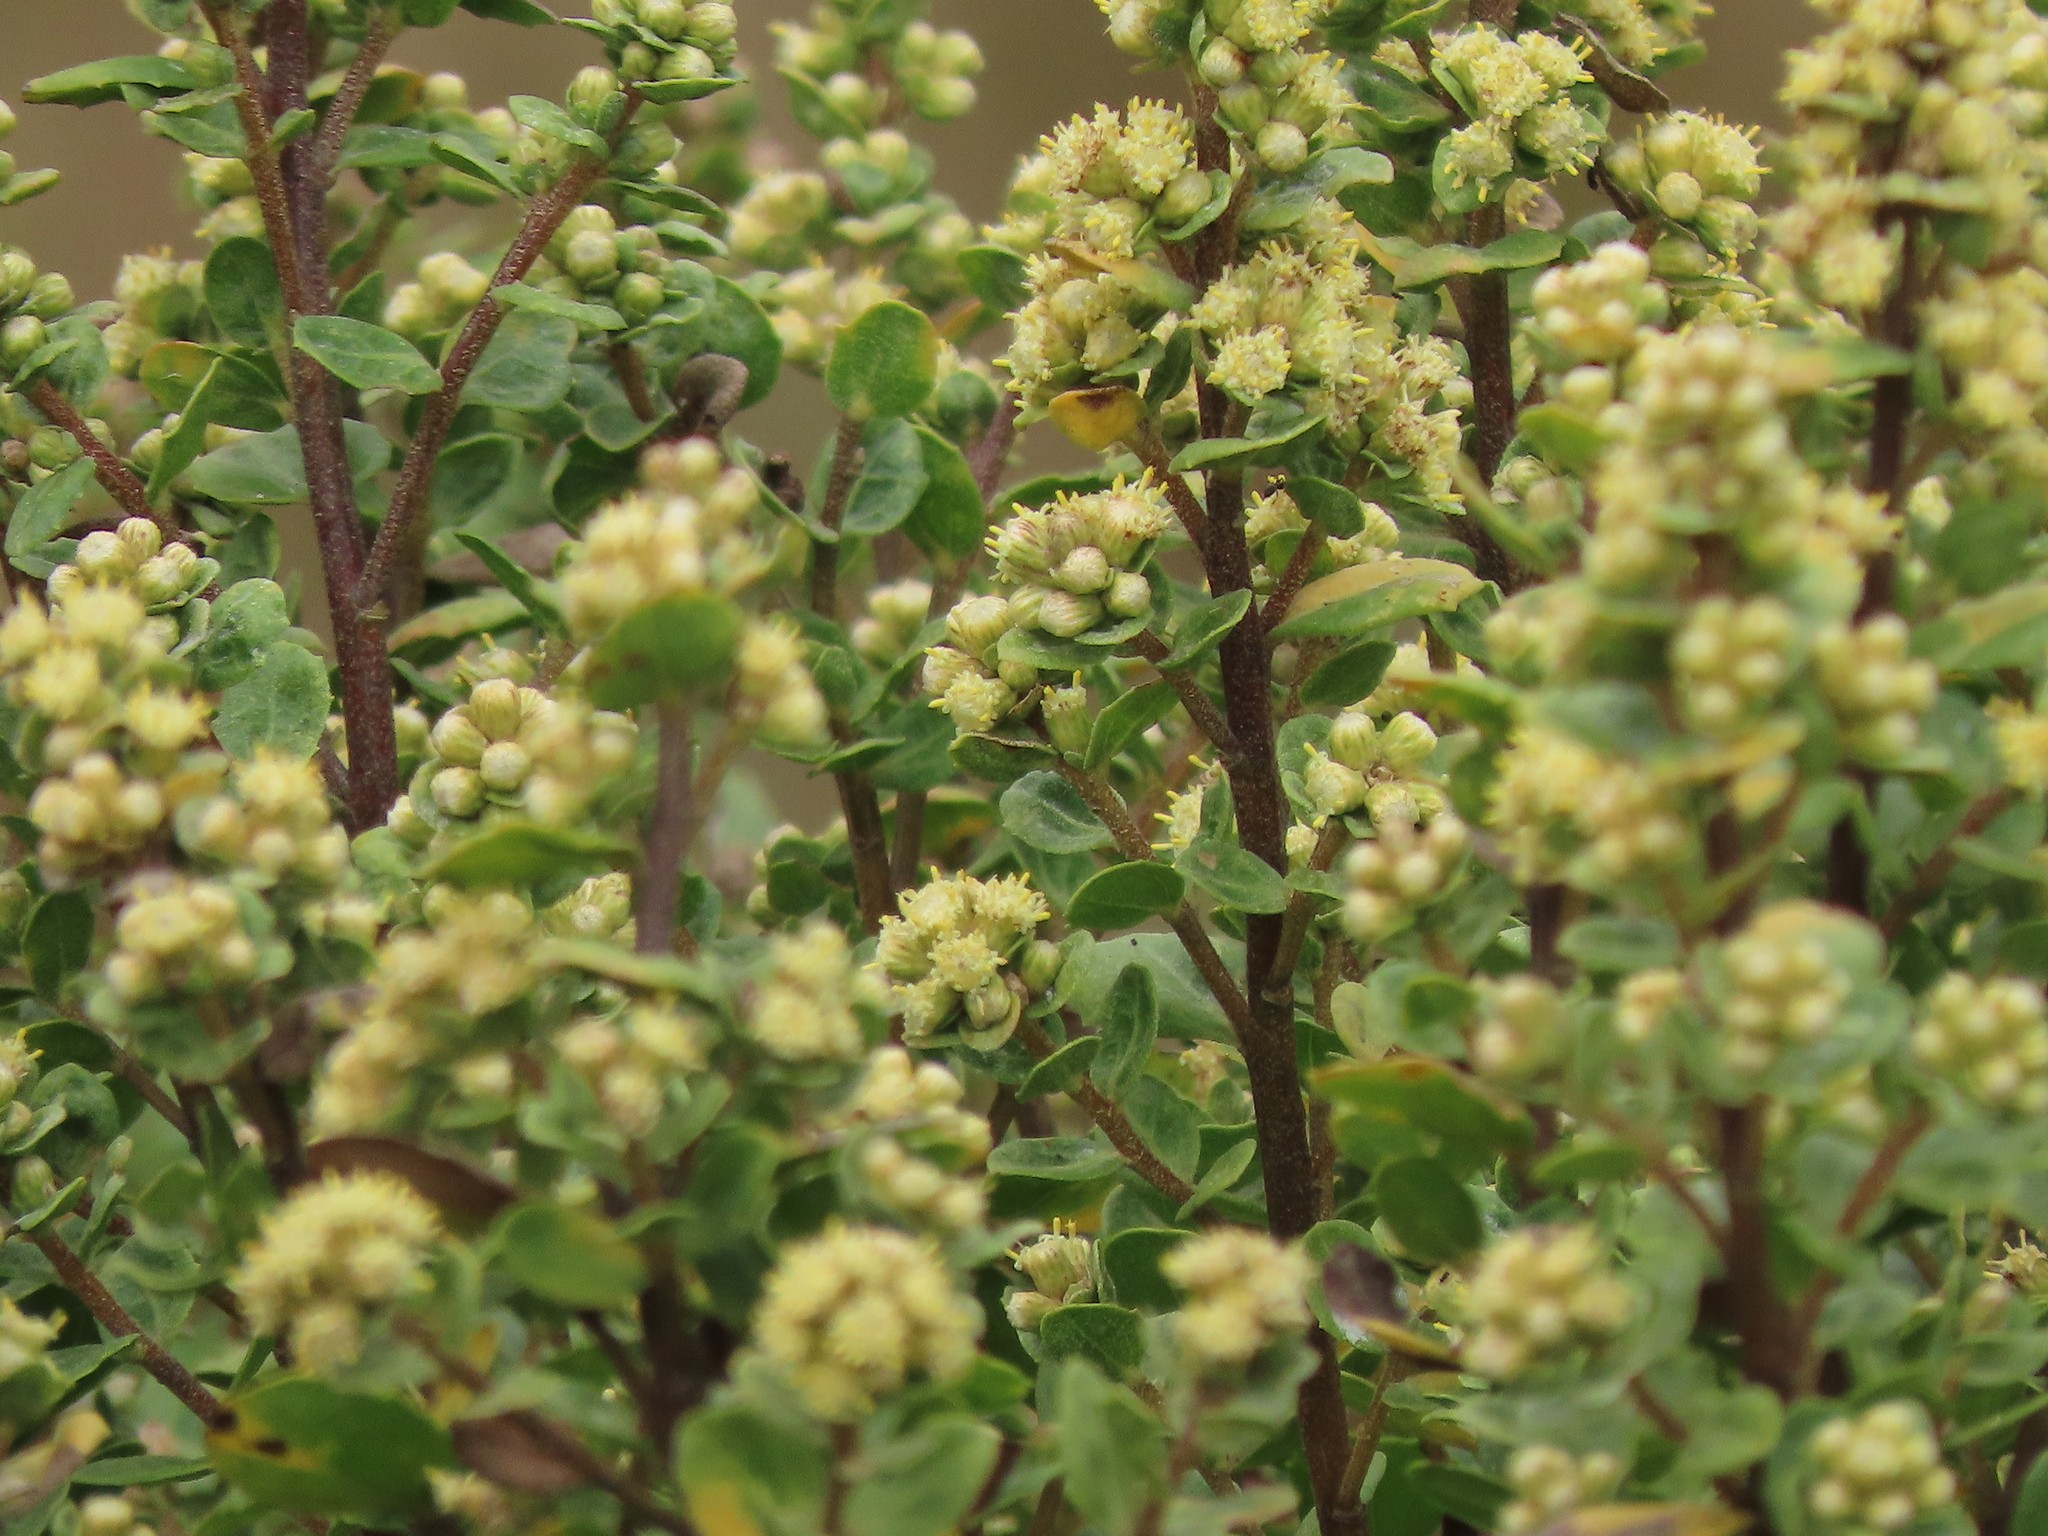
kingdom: Plantae
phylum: Tracheophyta
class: Magnoliopsida
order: Asterales
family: Asteraceae
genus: Baccharis
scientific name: Baccharis pilularis
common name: Coyotebrush
